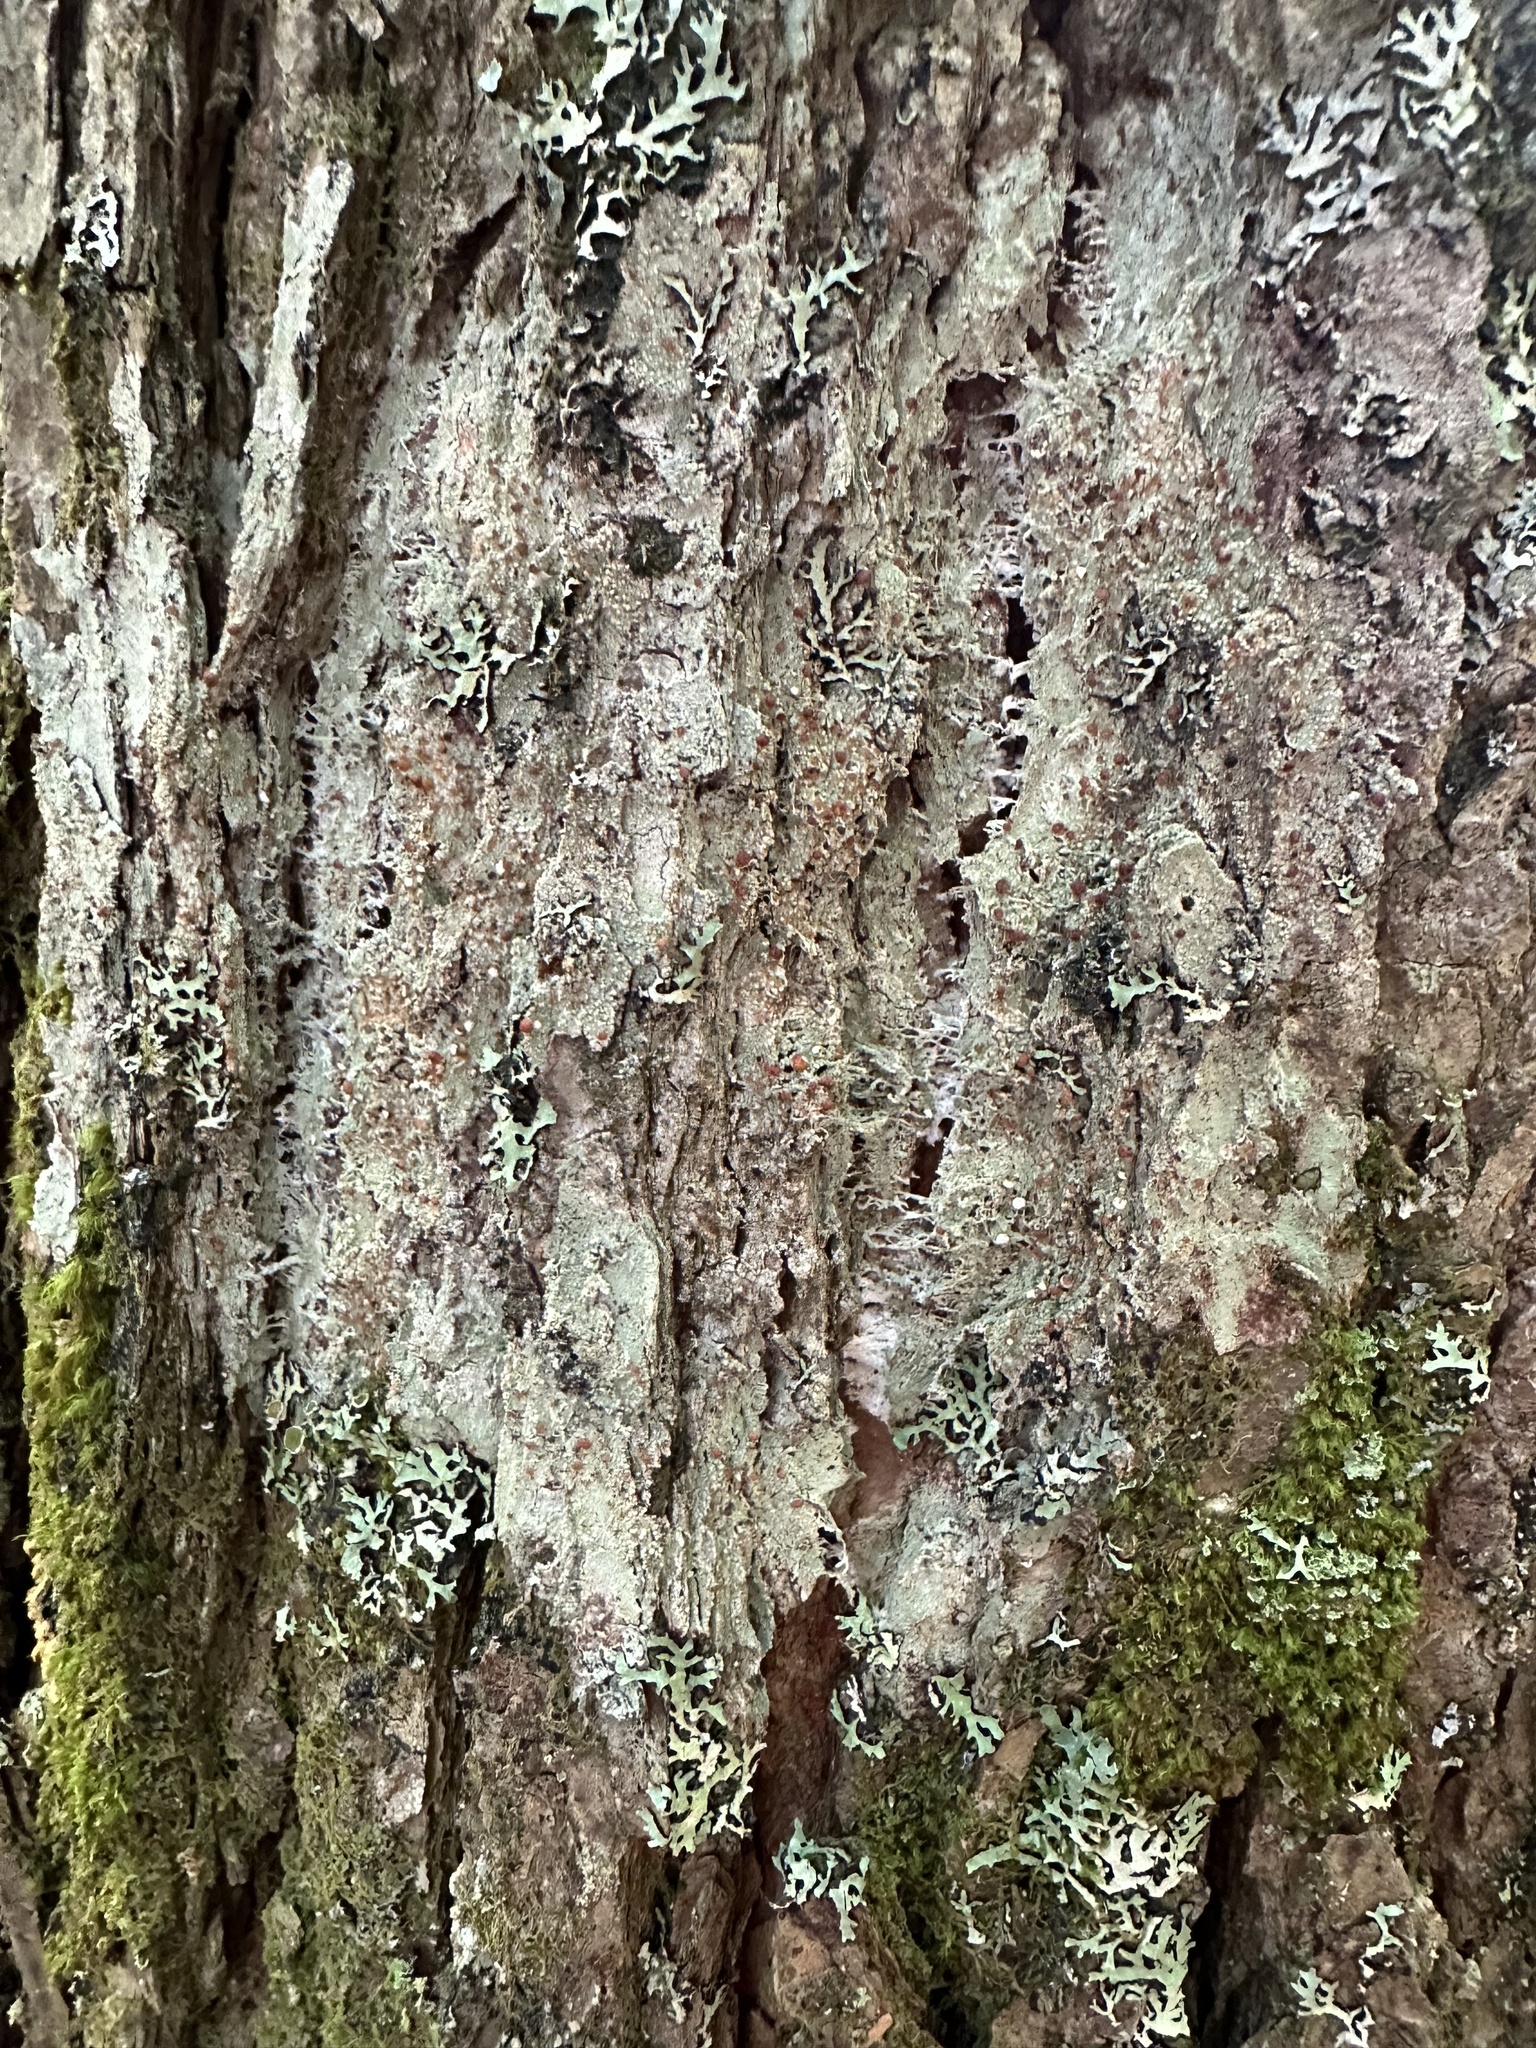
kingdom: Fungi
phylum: Ascomycota
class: Lecanoromycetes
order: Lecanorales
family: Sarrameanaceae
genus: Loxospora
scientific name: Loxospora ochrophaea
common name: Eastern ragged-rim lichen
